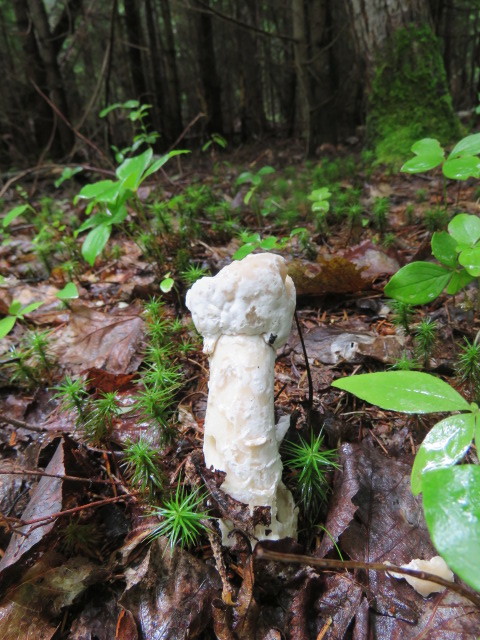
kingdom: Fungi
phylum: Ascomycota
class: Sordariomycetes
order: Hypocreales
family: Hypocreaceae
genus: Hypomyces
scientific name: Hypomyces hyalinus
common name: Amanita mold
